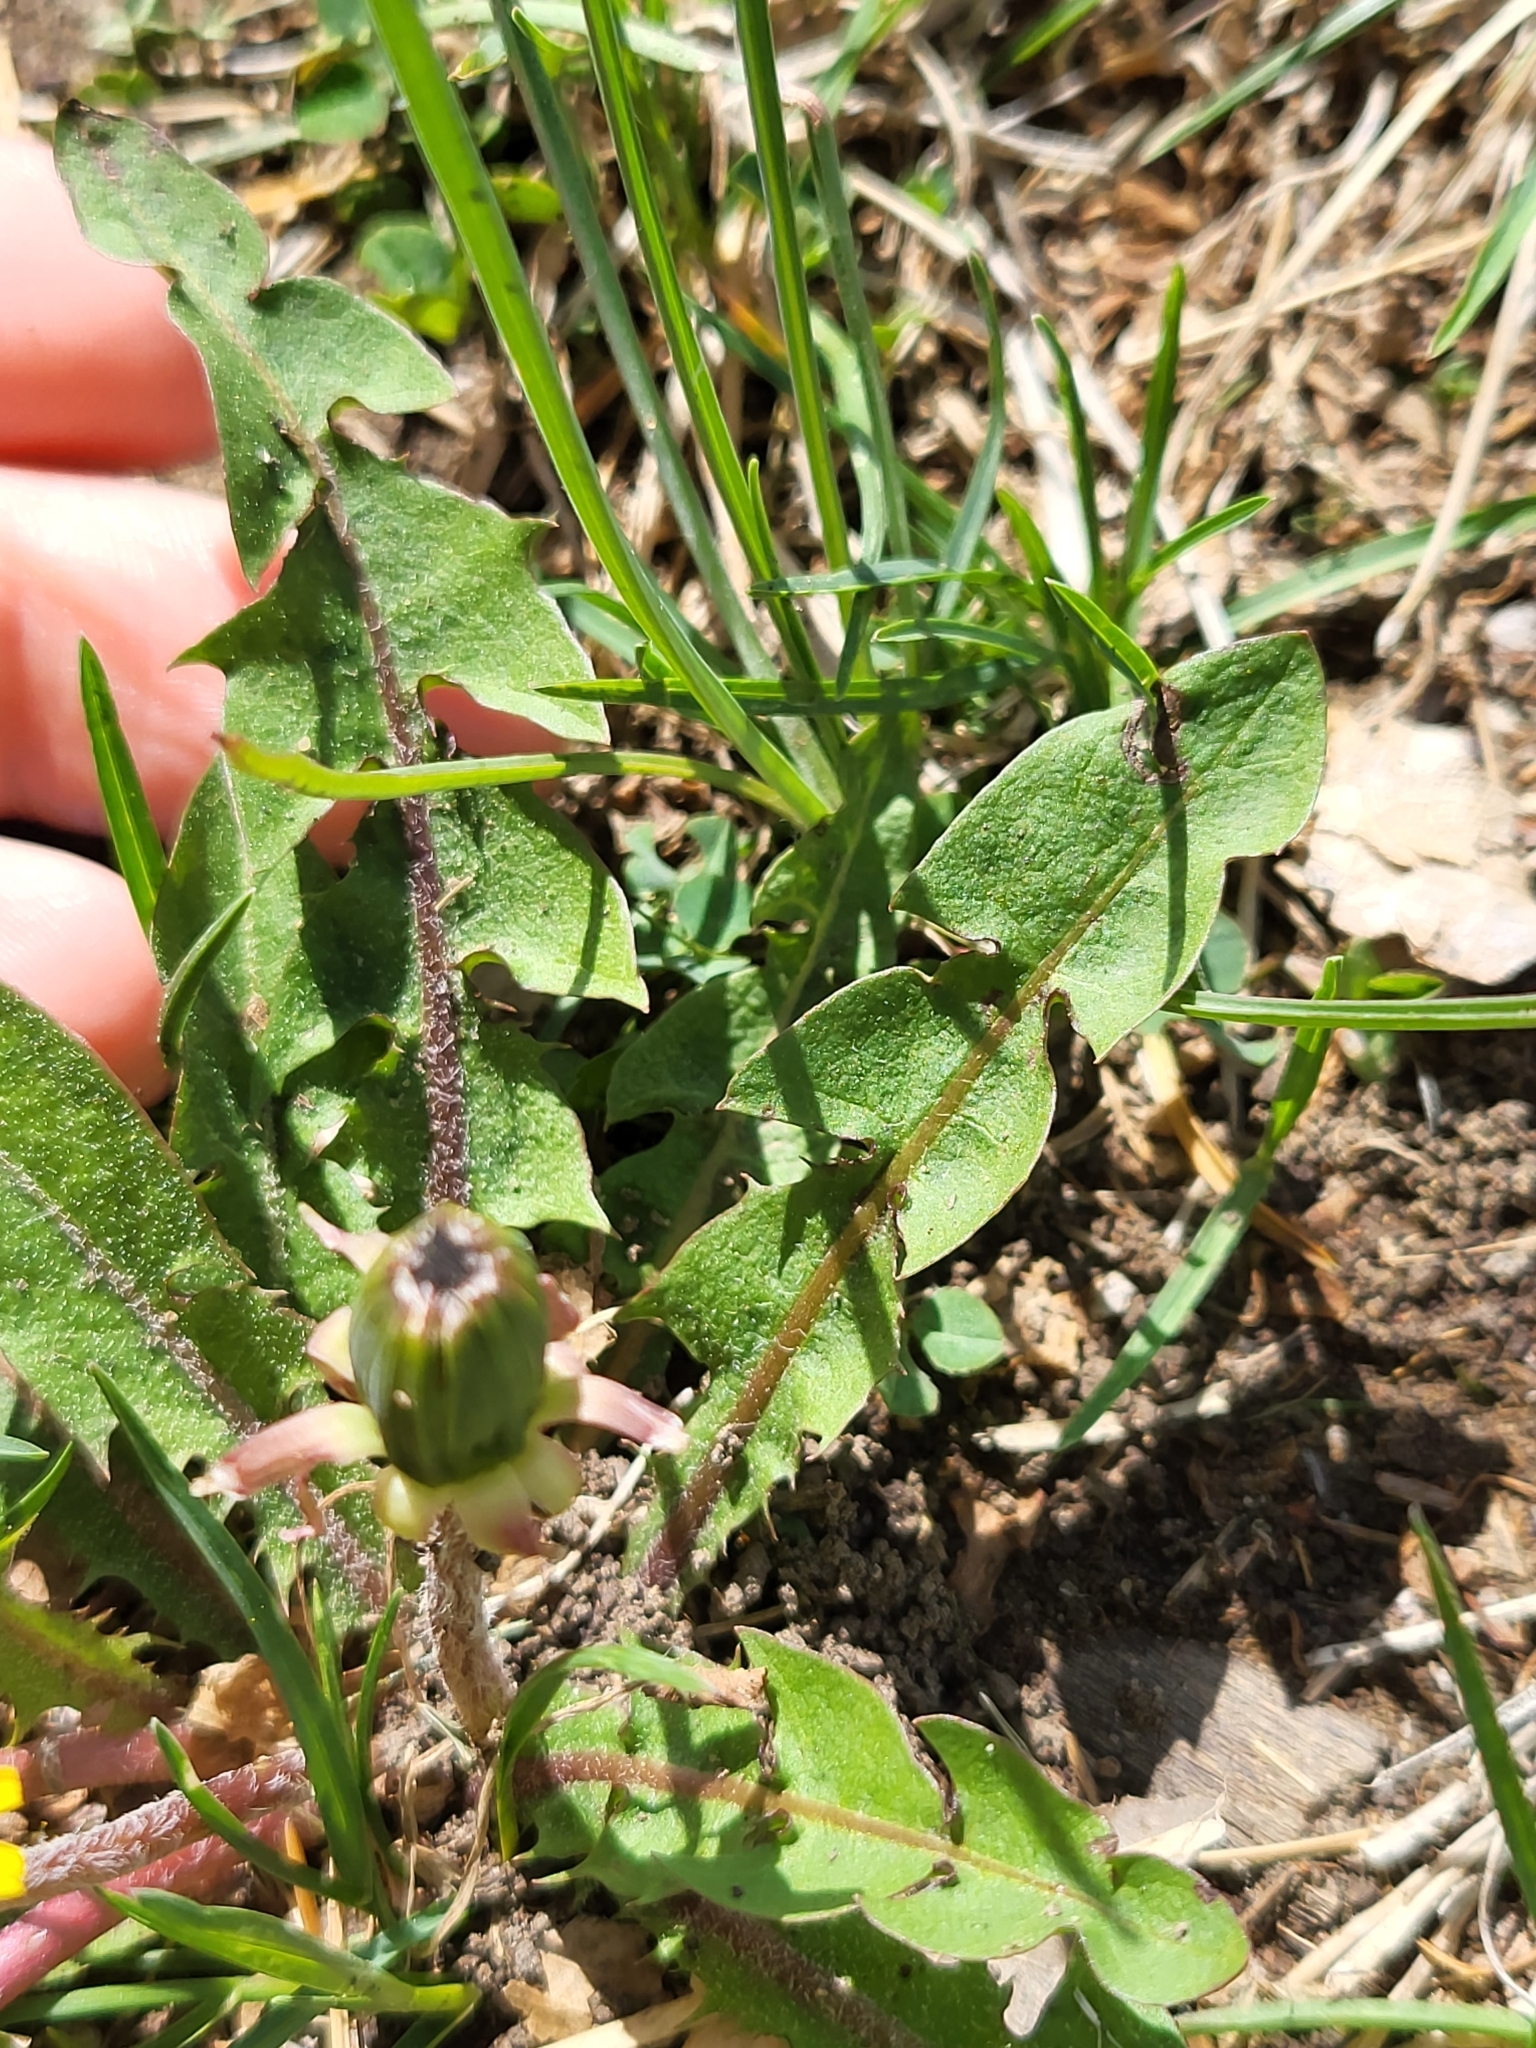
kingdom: Plantae
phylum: Tracheophyta
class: Magnoliopsida
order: Asterales
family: Asteraceae
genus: Taraxacum
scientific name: Taraxacum officinale
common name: Common dandelion
